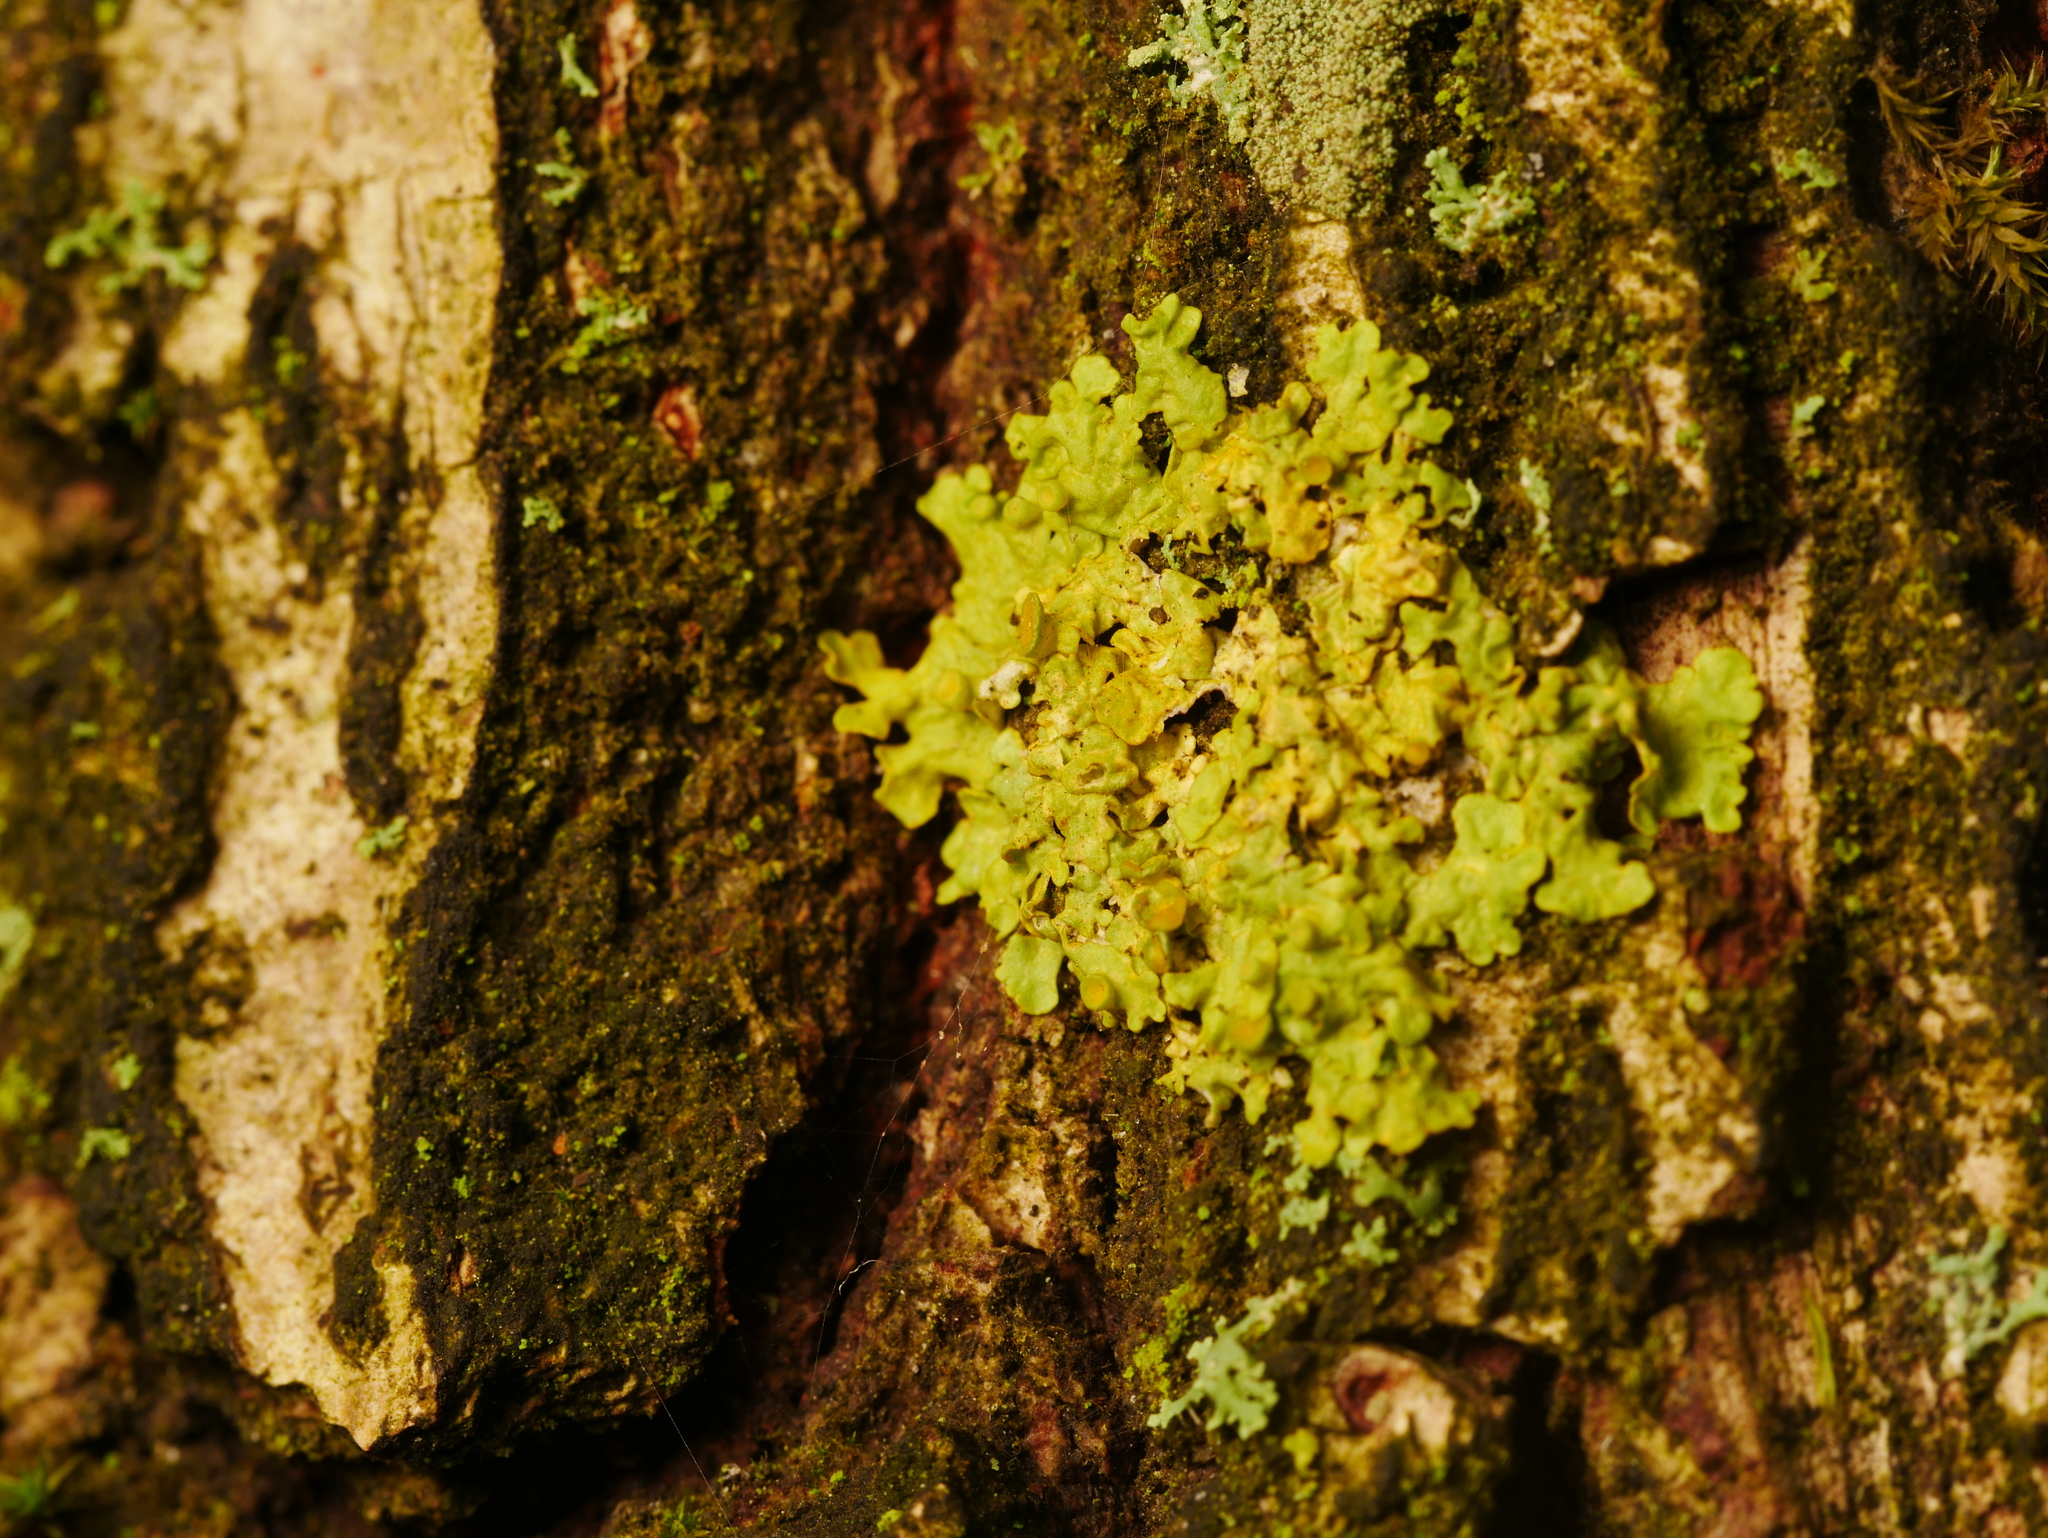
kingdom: Fungi
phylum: Ascomycota
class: Lecanoromycetes
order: Teloschistales
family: Teloschistaceae
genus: Xanthoria
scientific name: Xanthoria parietina
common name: Common orange lichen
